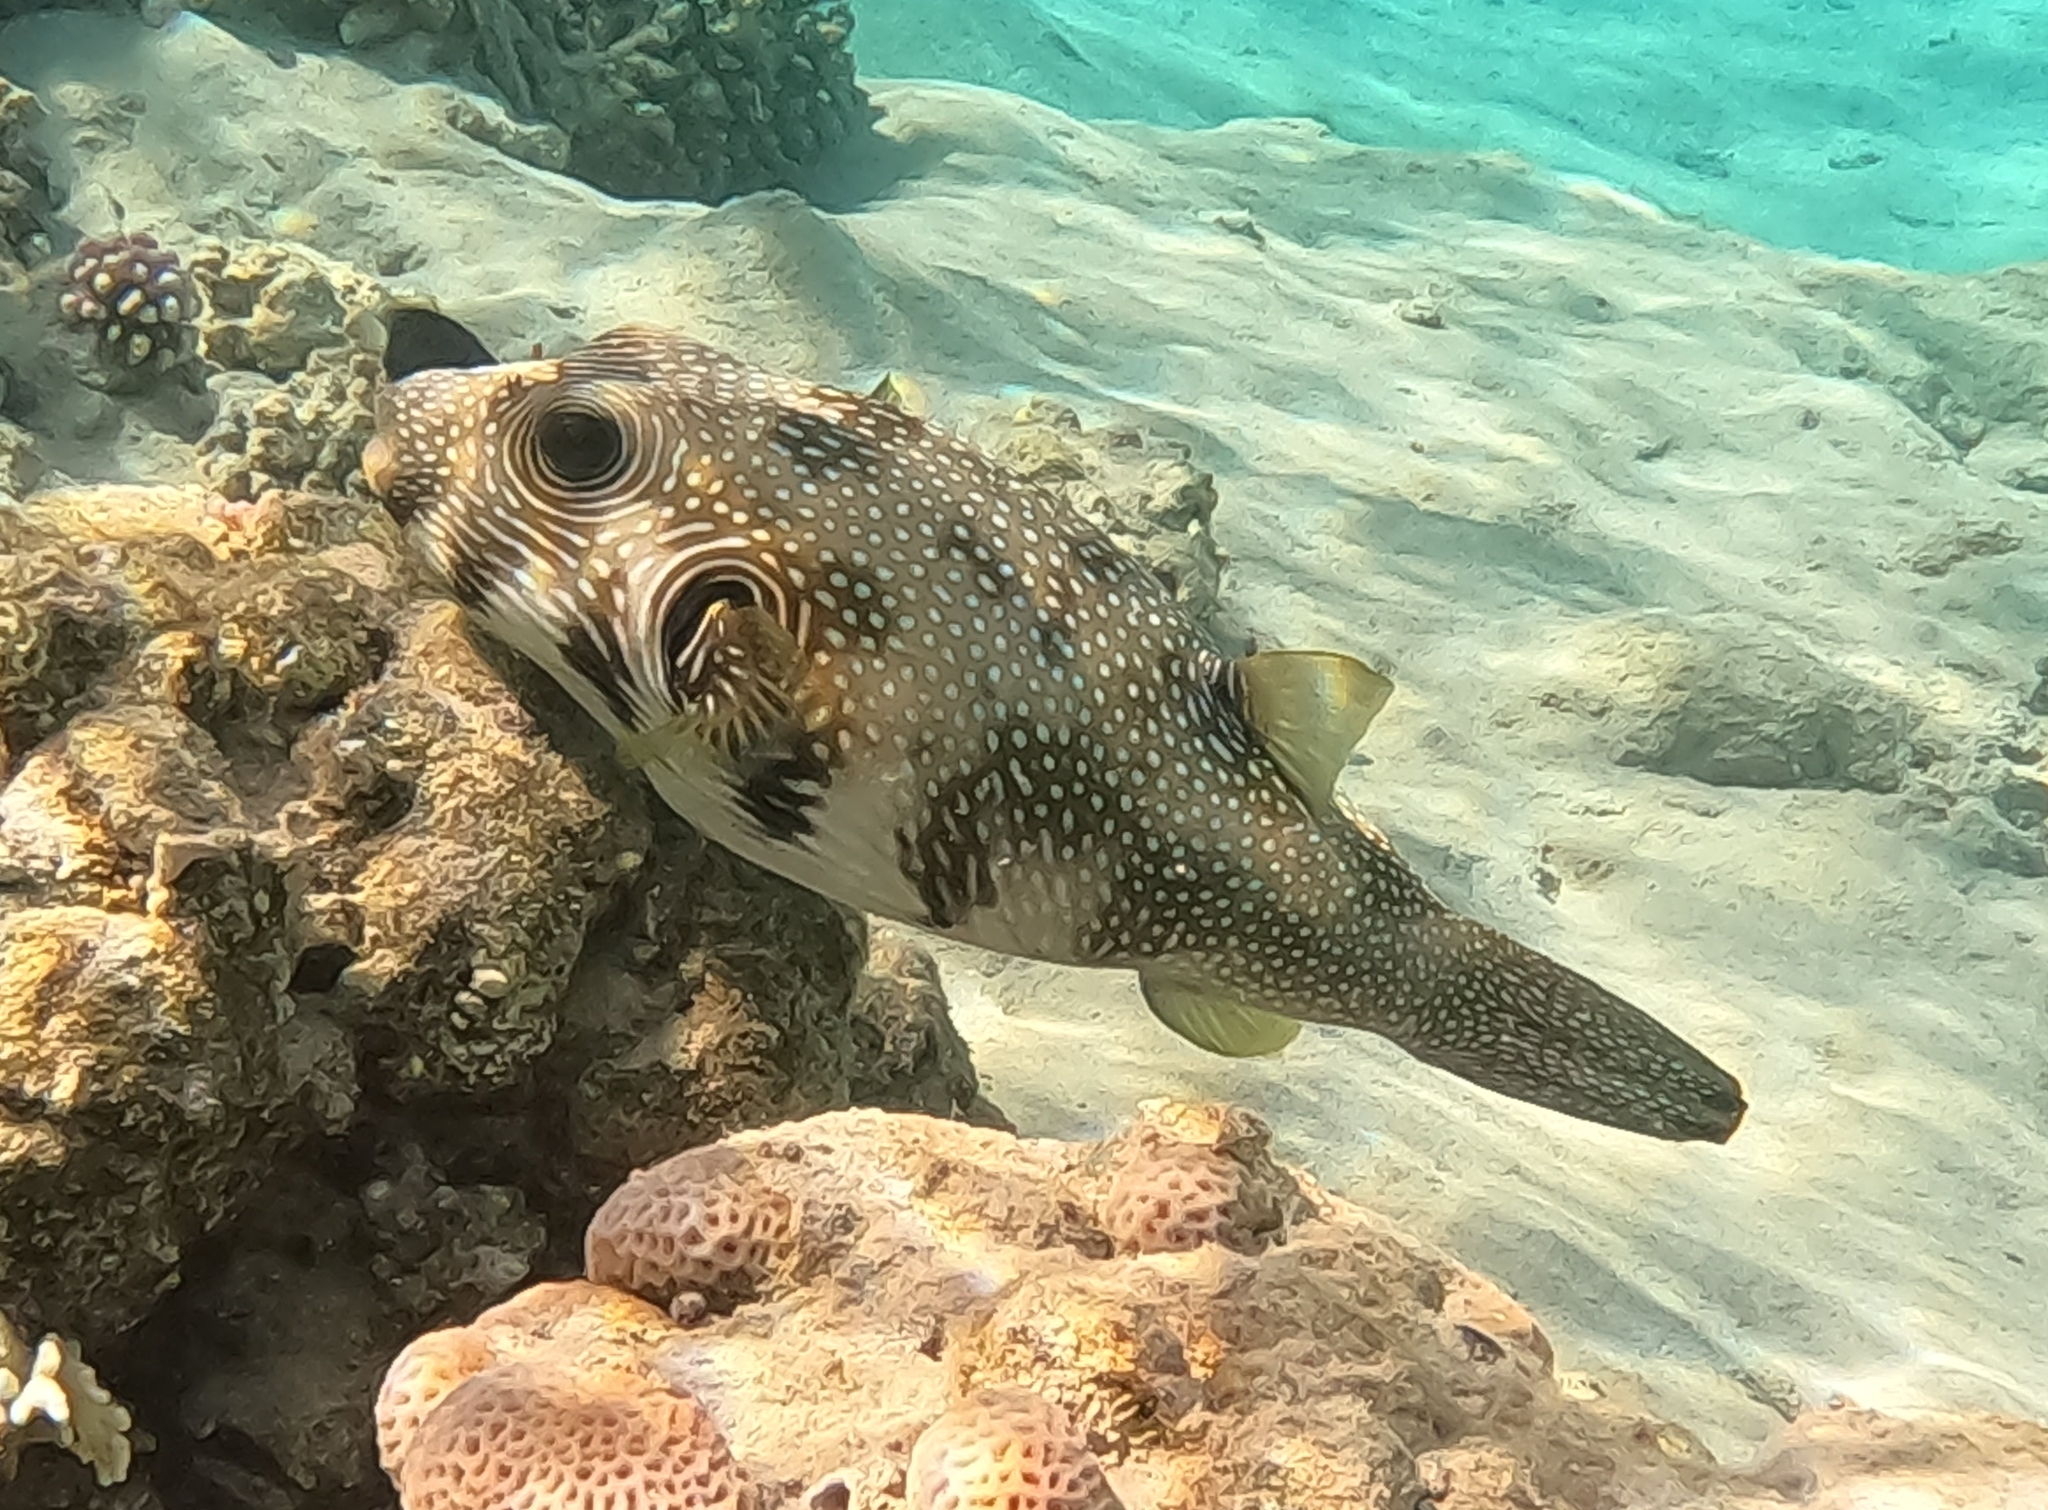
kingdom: Animalia
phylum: Chordata
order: Tetraodontiformes
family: Tetraodontidae
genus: Arothron
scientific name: Arothron hispidus
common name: Stripebelly puffer
